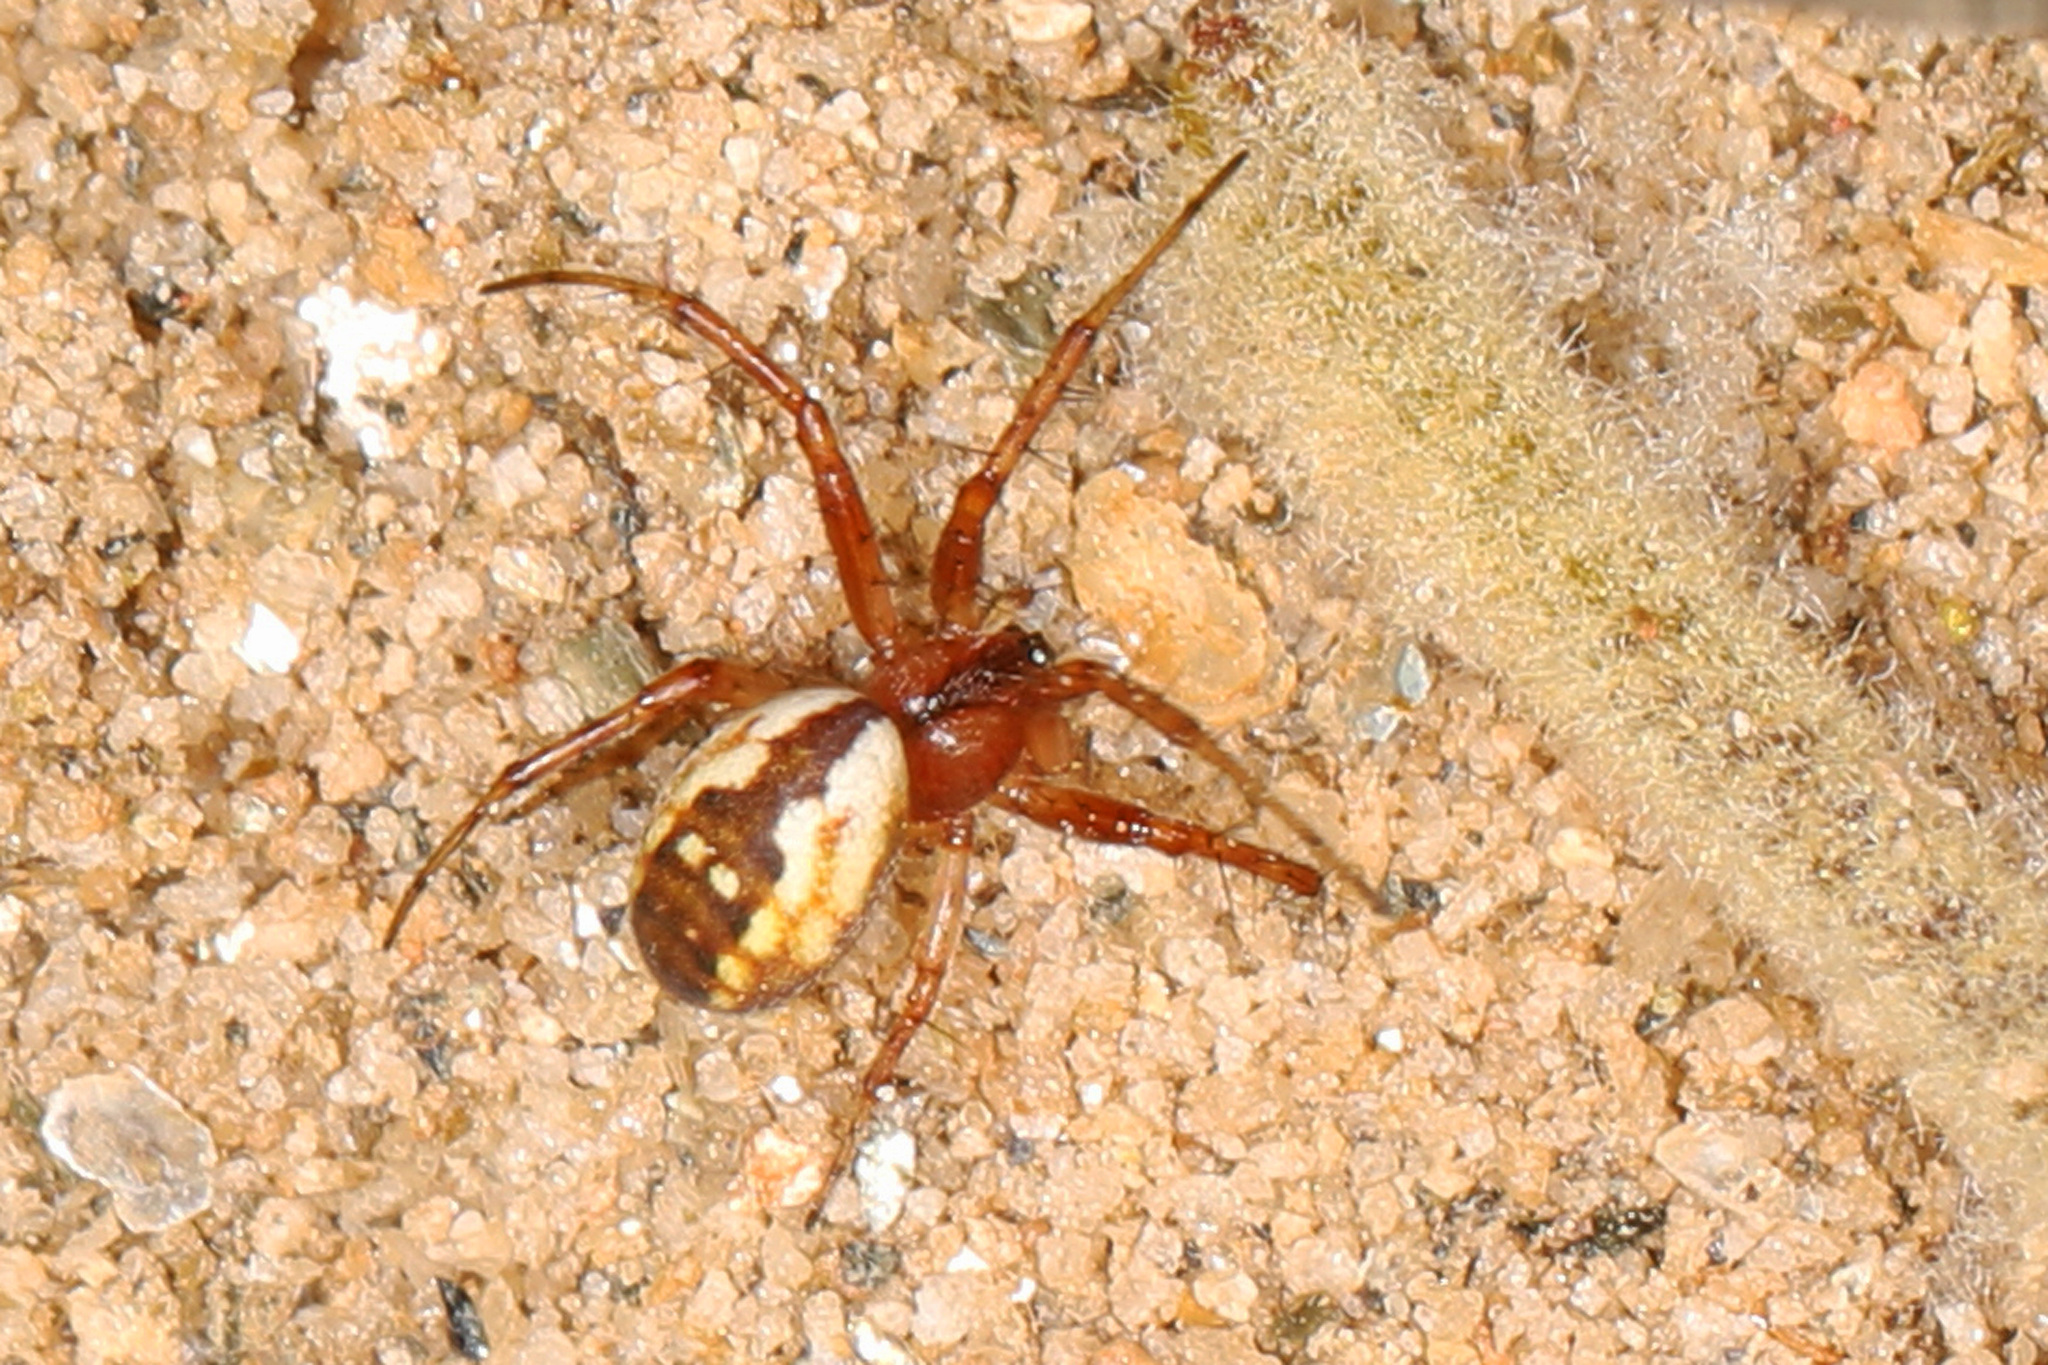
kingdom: Animalia
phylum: Arthropoda
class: Arachnida
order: Araneae
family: Araneidae
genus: Mangora
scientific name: Mangora placida
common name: Tuft-legged orbweaver
